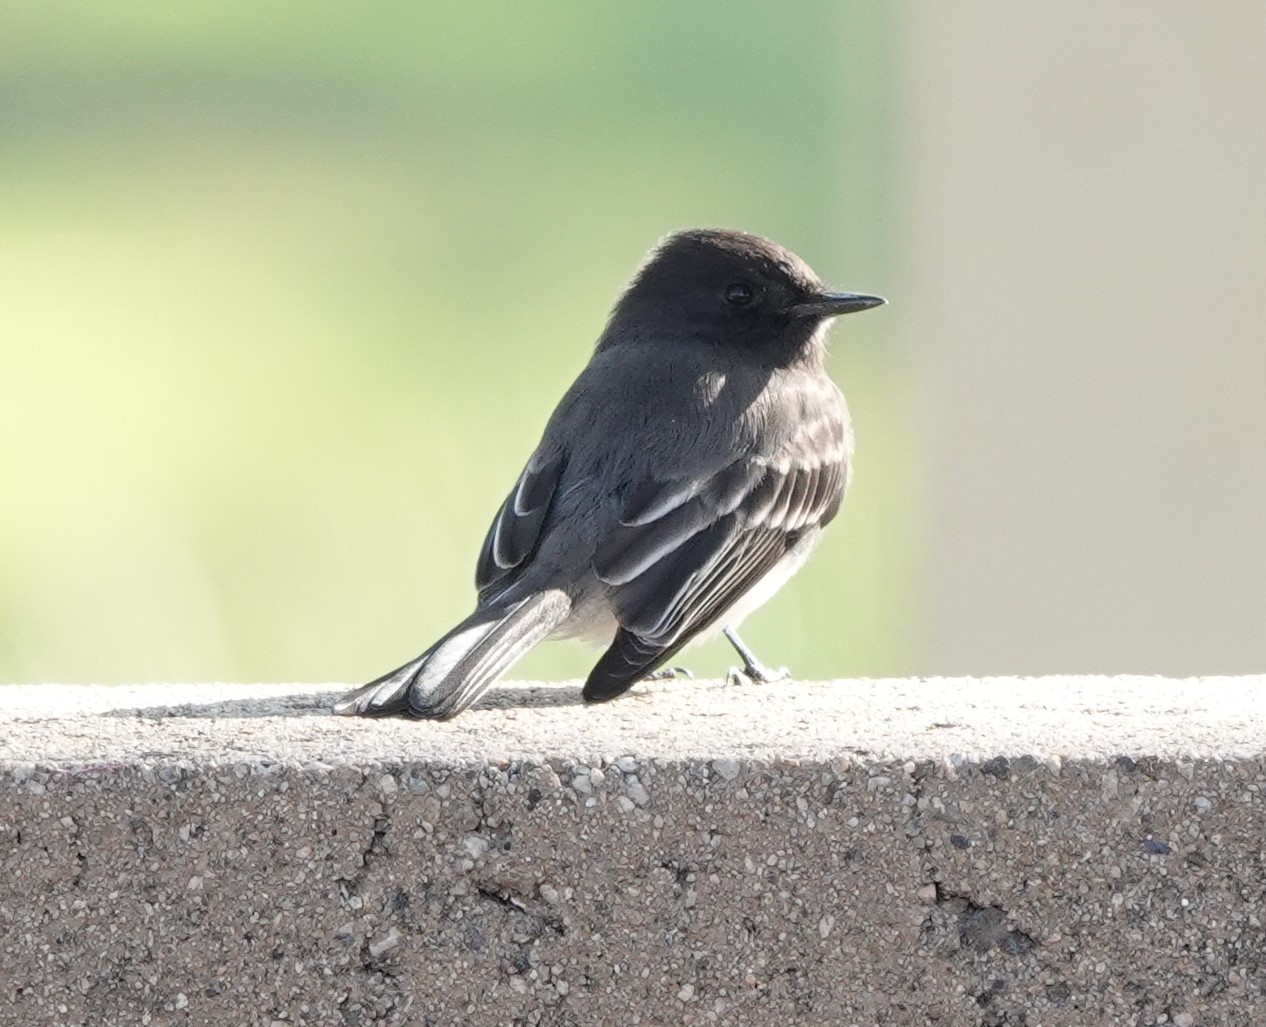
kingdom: Animalia
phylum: Chordata
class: Aves
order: Passeriformes
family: Tyrannidae
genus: Sayornis
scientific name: Sayornis nigricans
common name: Black phoebe
